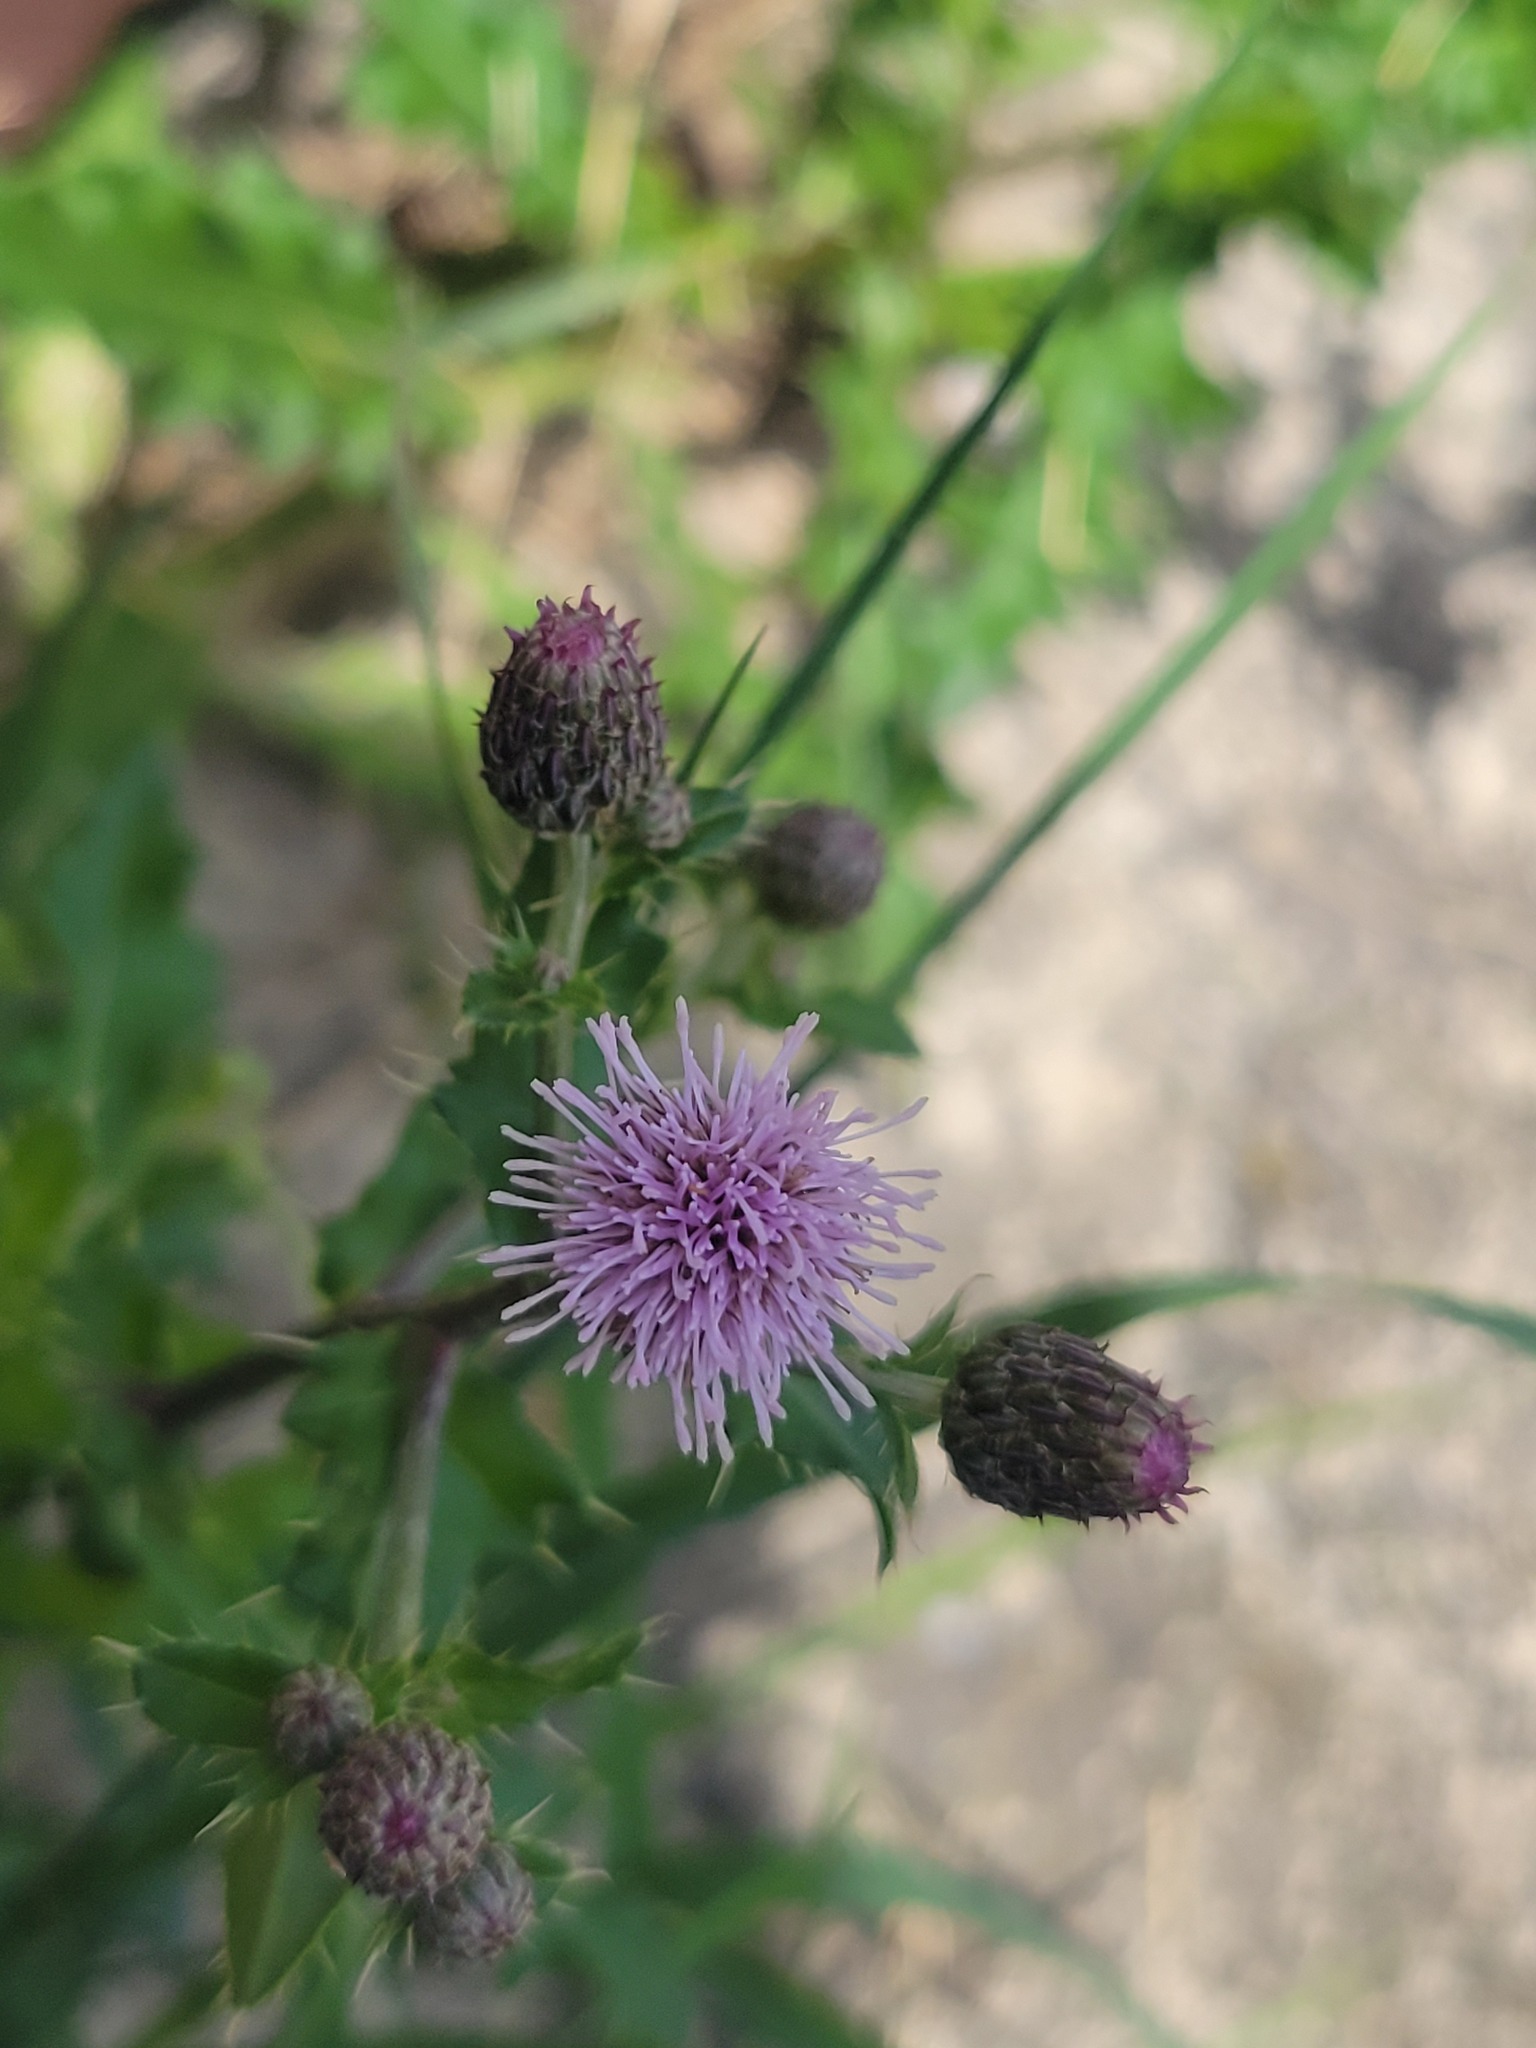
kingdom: Plantae
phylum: Tracheophyta
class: Magnoliopsida
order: Asterales
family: Asteraceae
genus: Cirsium
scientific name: Cirsium arvense
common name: Creeping thistle
